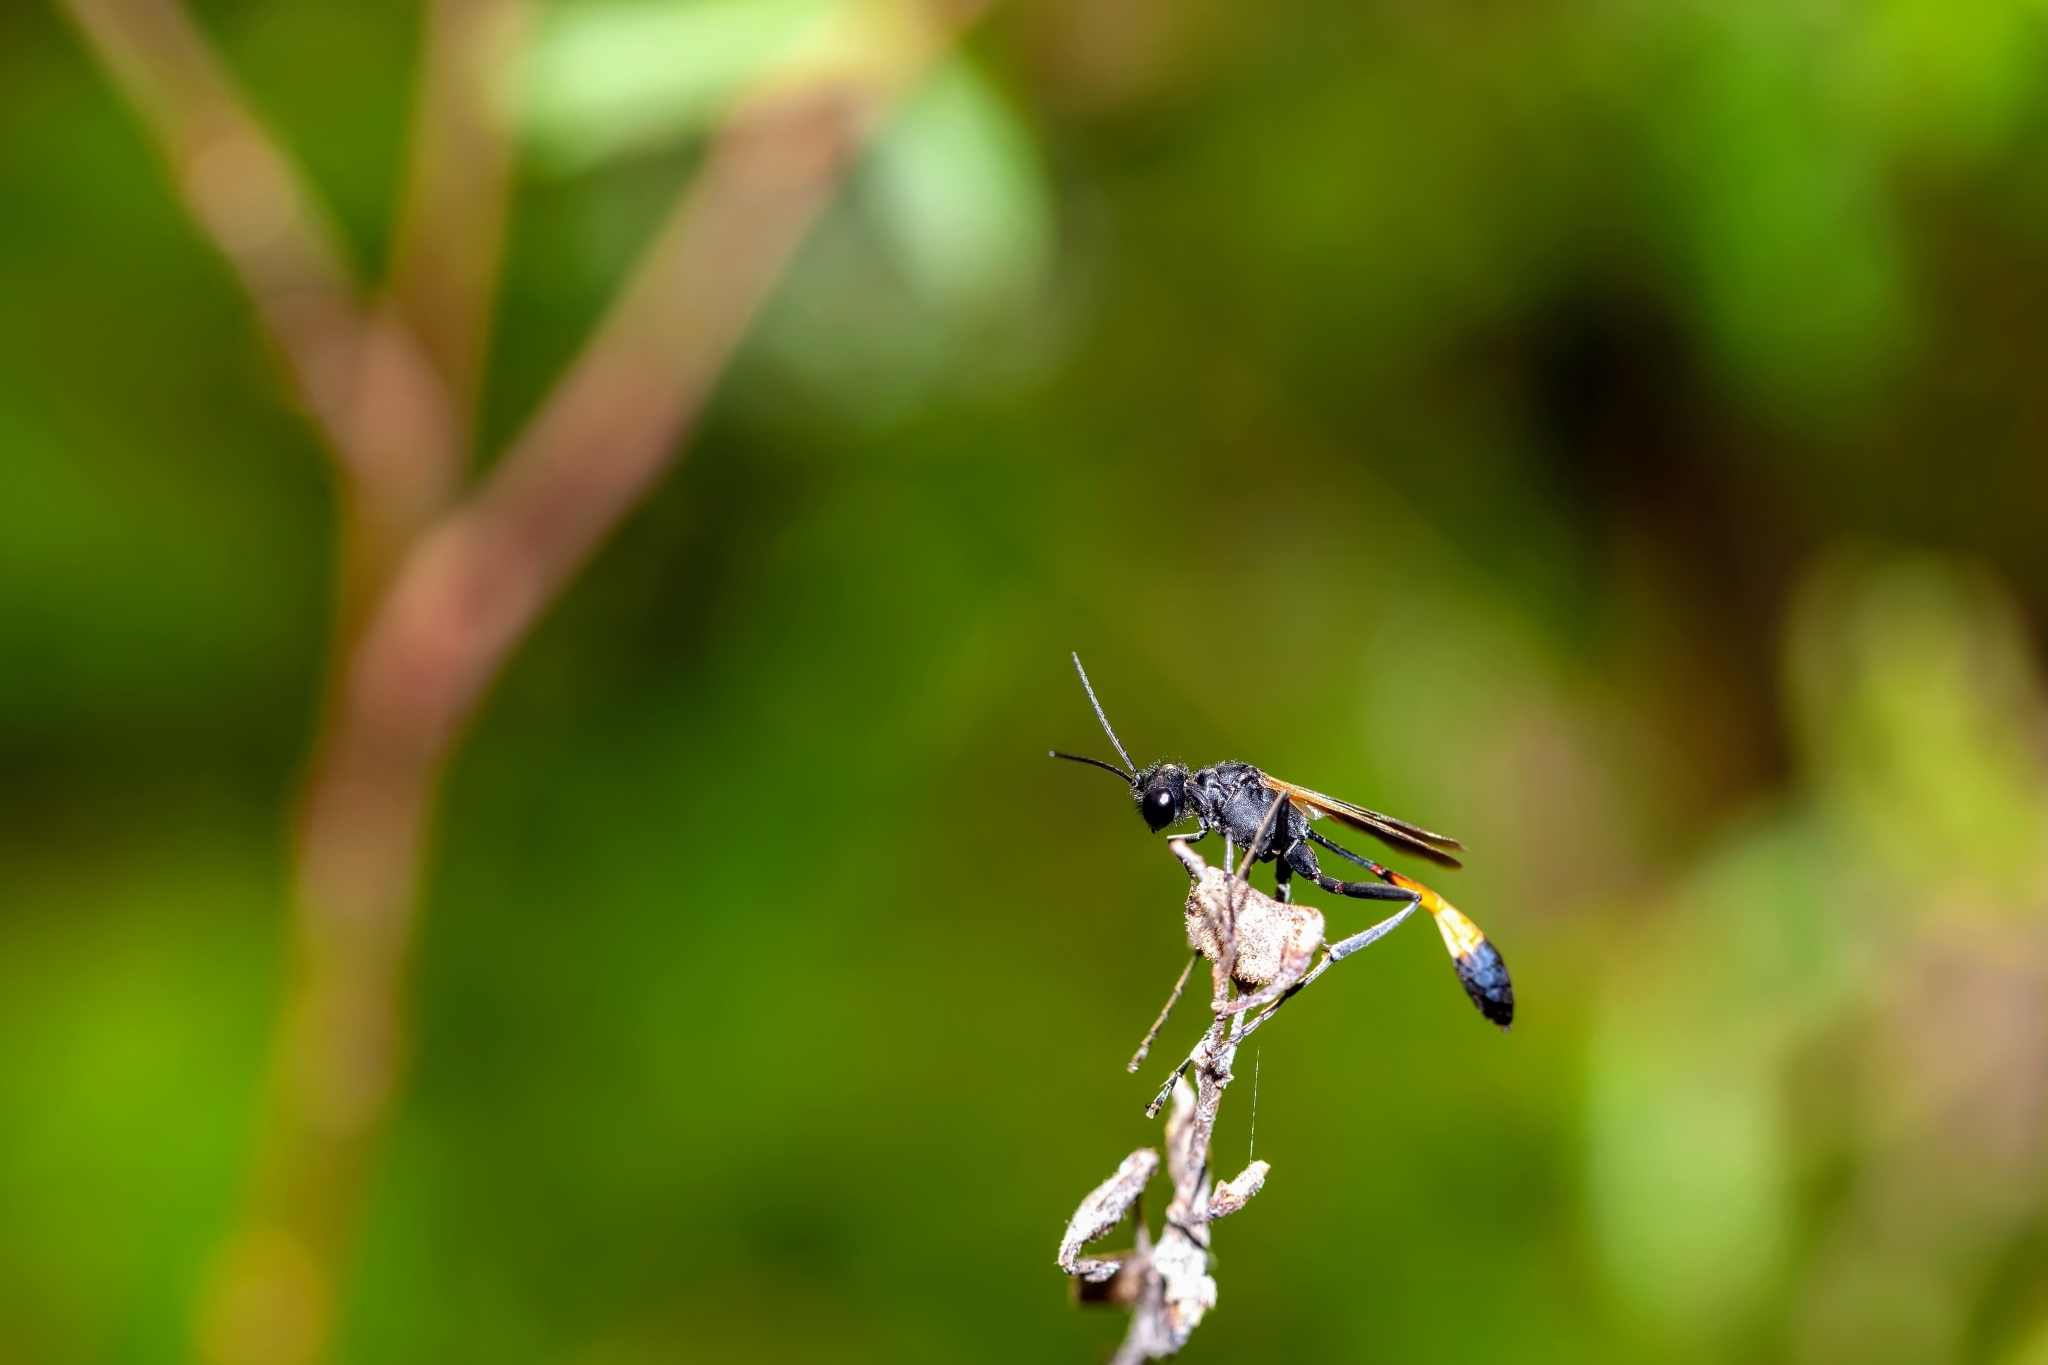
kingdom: Animalia
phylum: Arthropoda
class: Insecta
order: Hymenoptera
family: Sphecidae
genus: Ammophila
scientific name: Ammophila pictipennis
